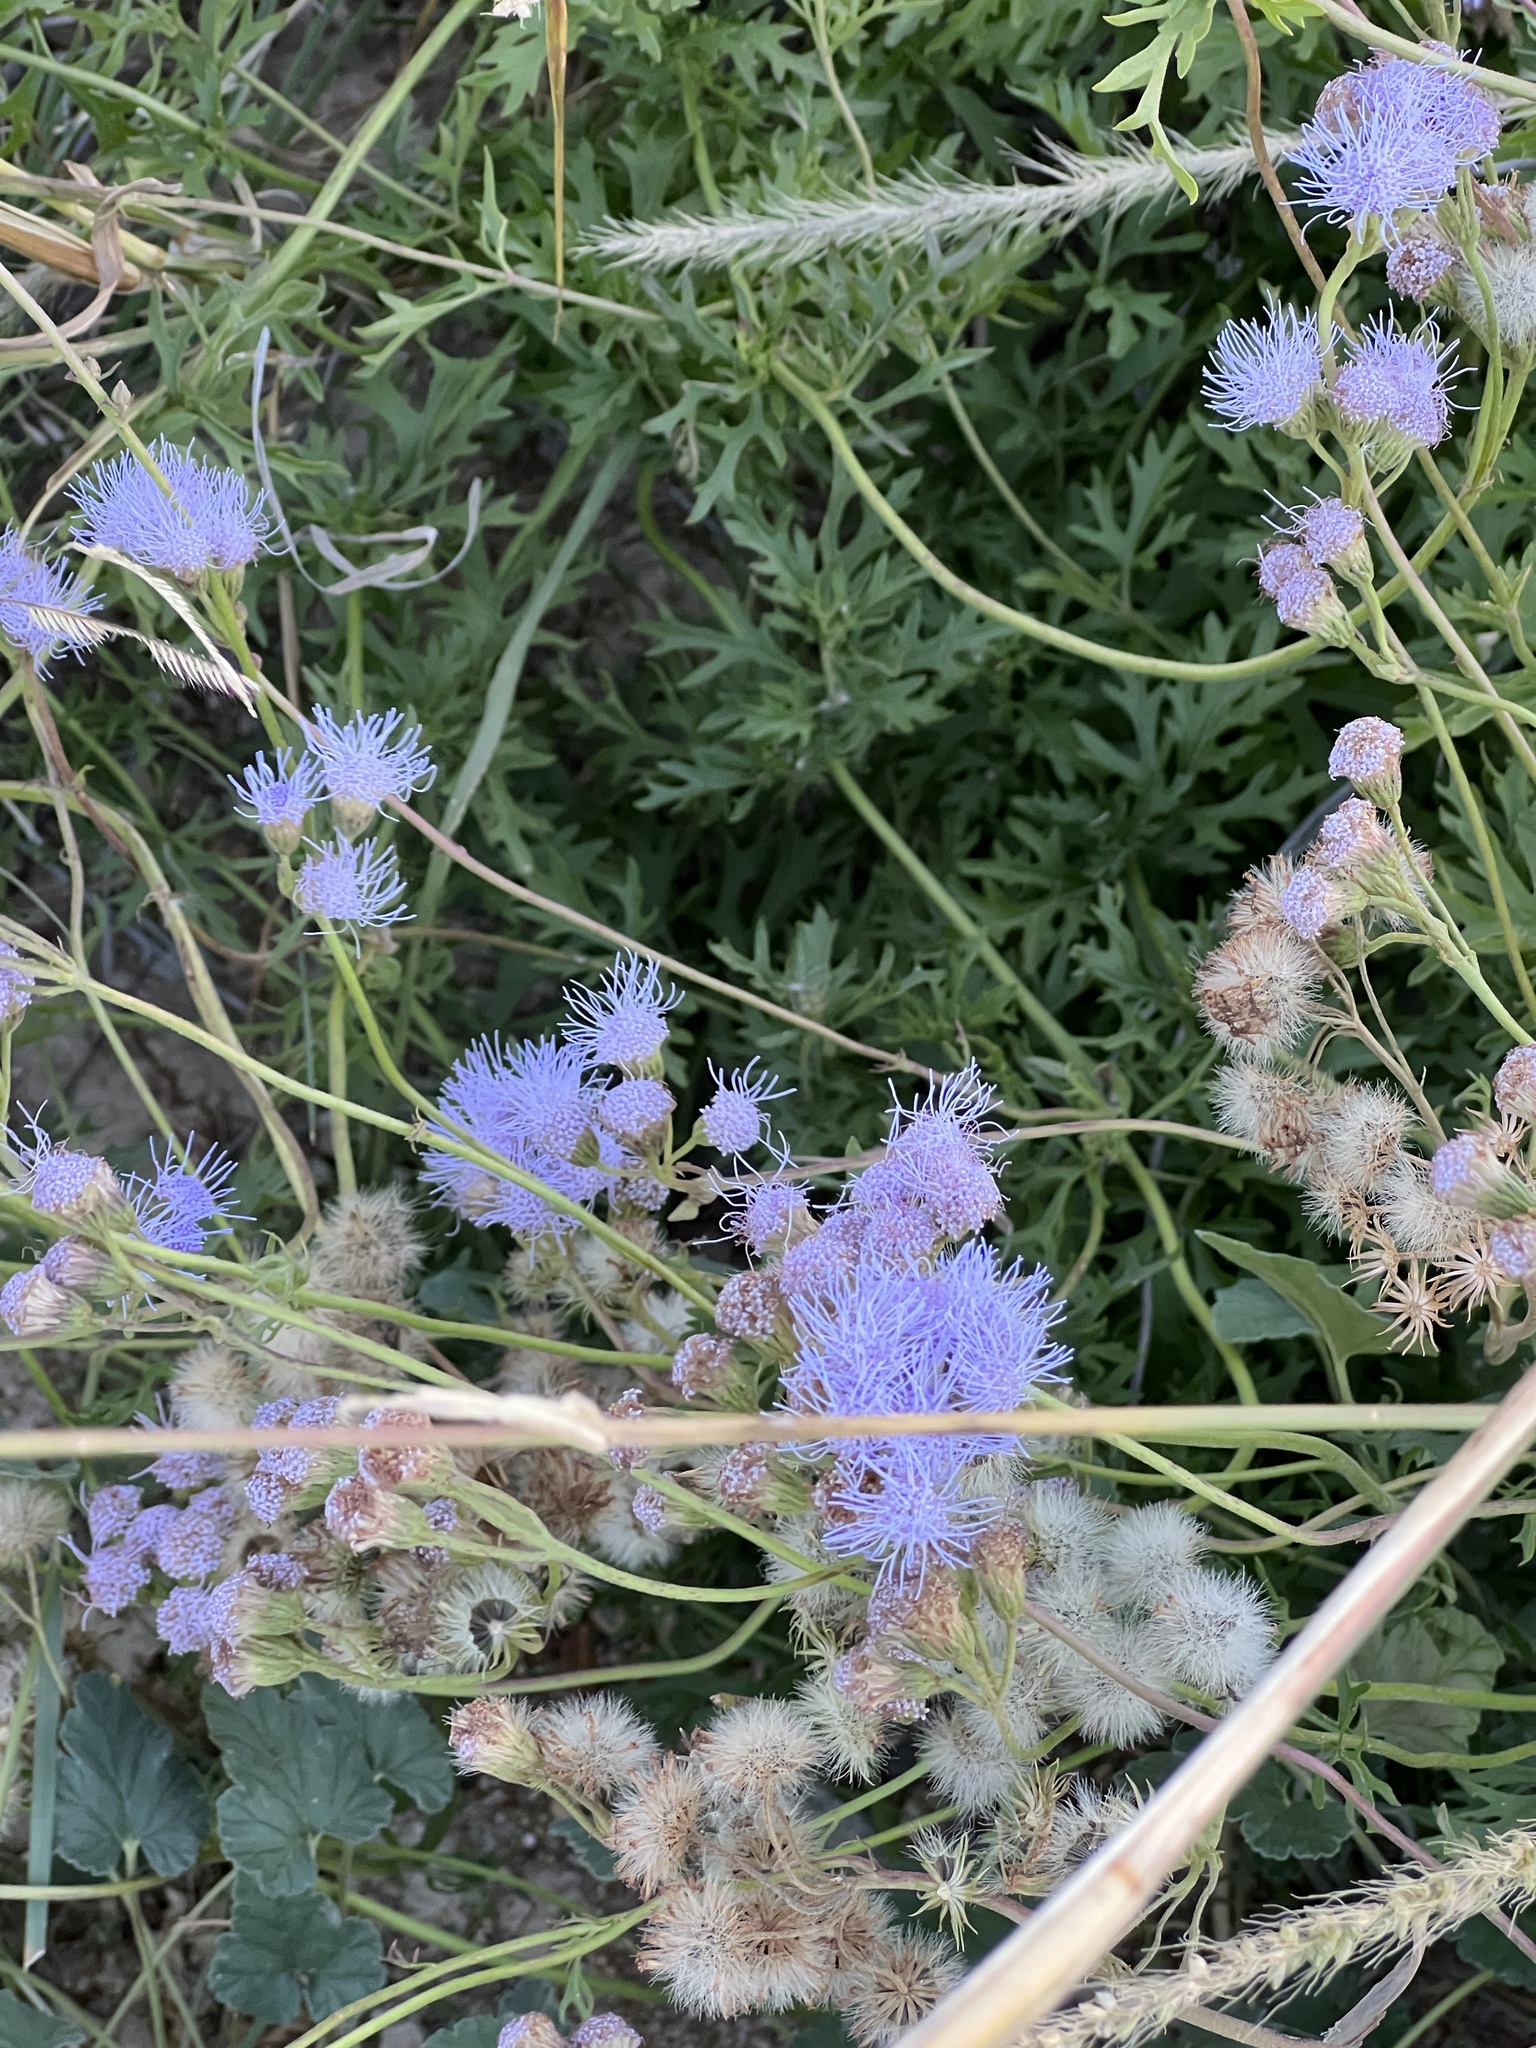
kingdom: Plantae
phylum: Tracheophyta
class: Magnoliopsida
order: Asterales
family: Asteraceae
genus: Conoclinium
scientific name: Conoclinium dissectum
